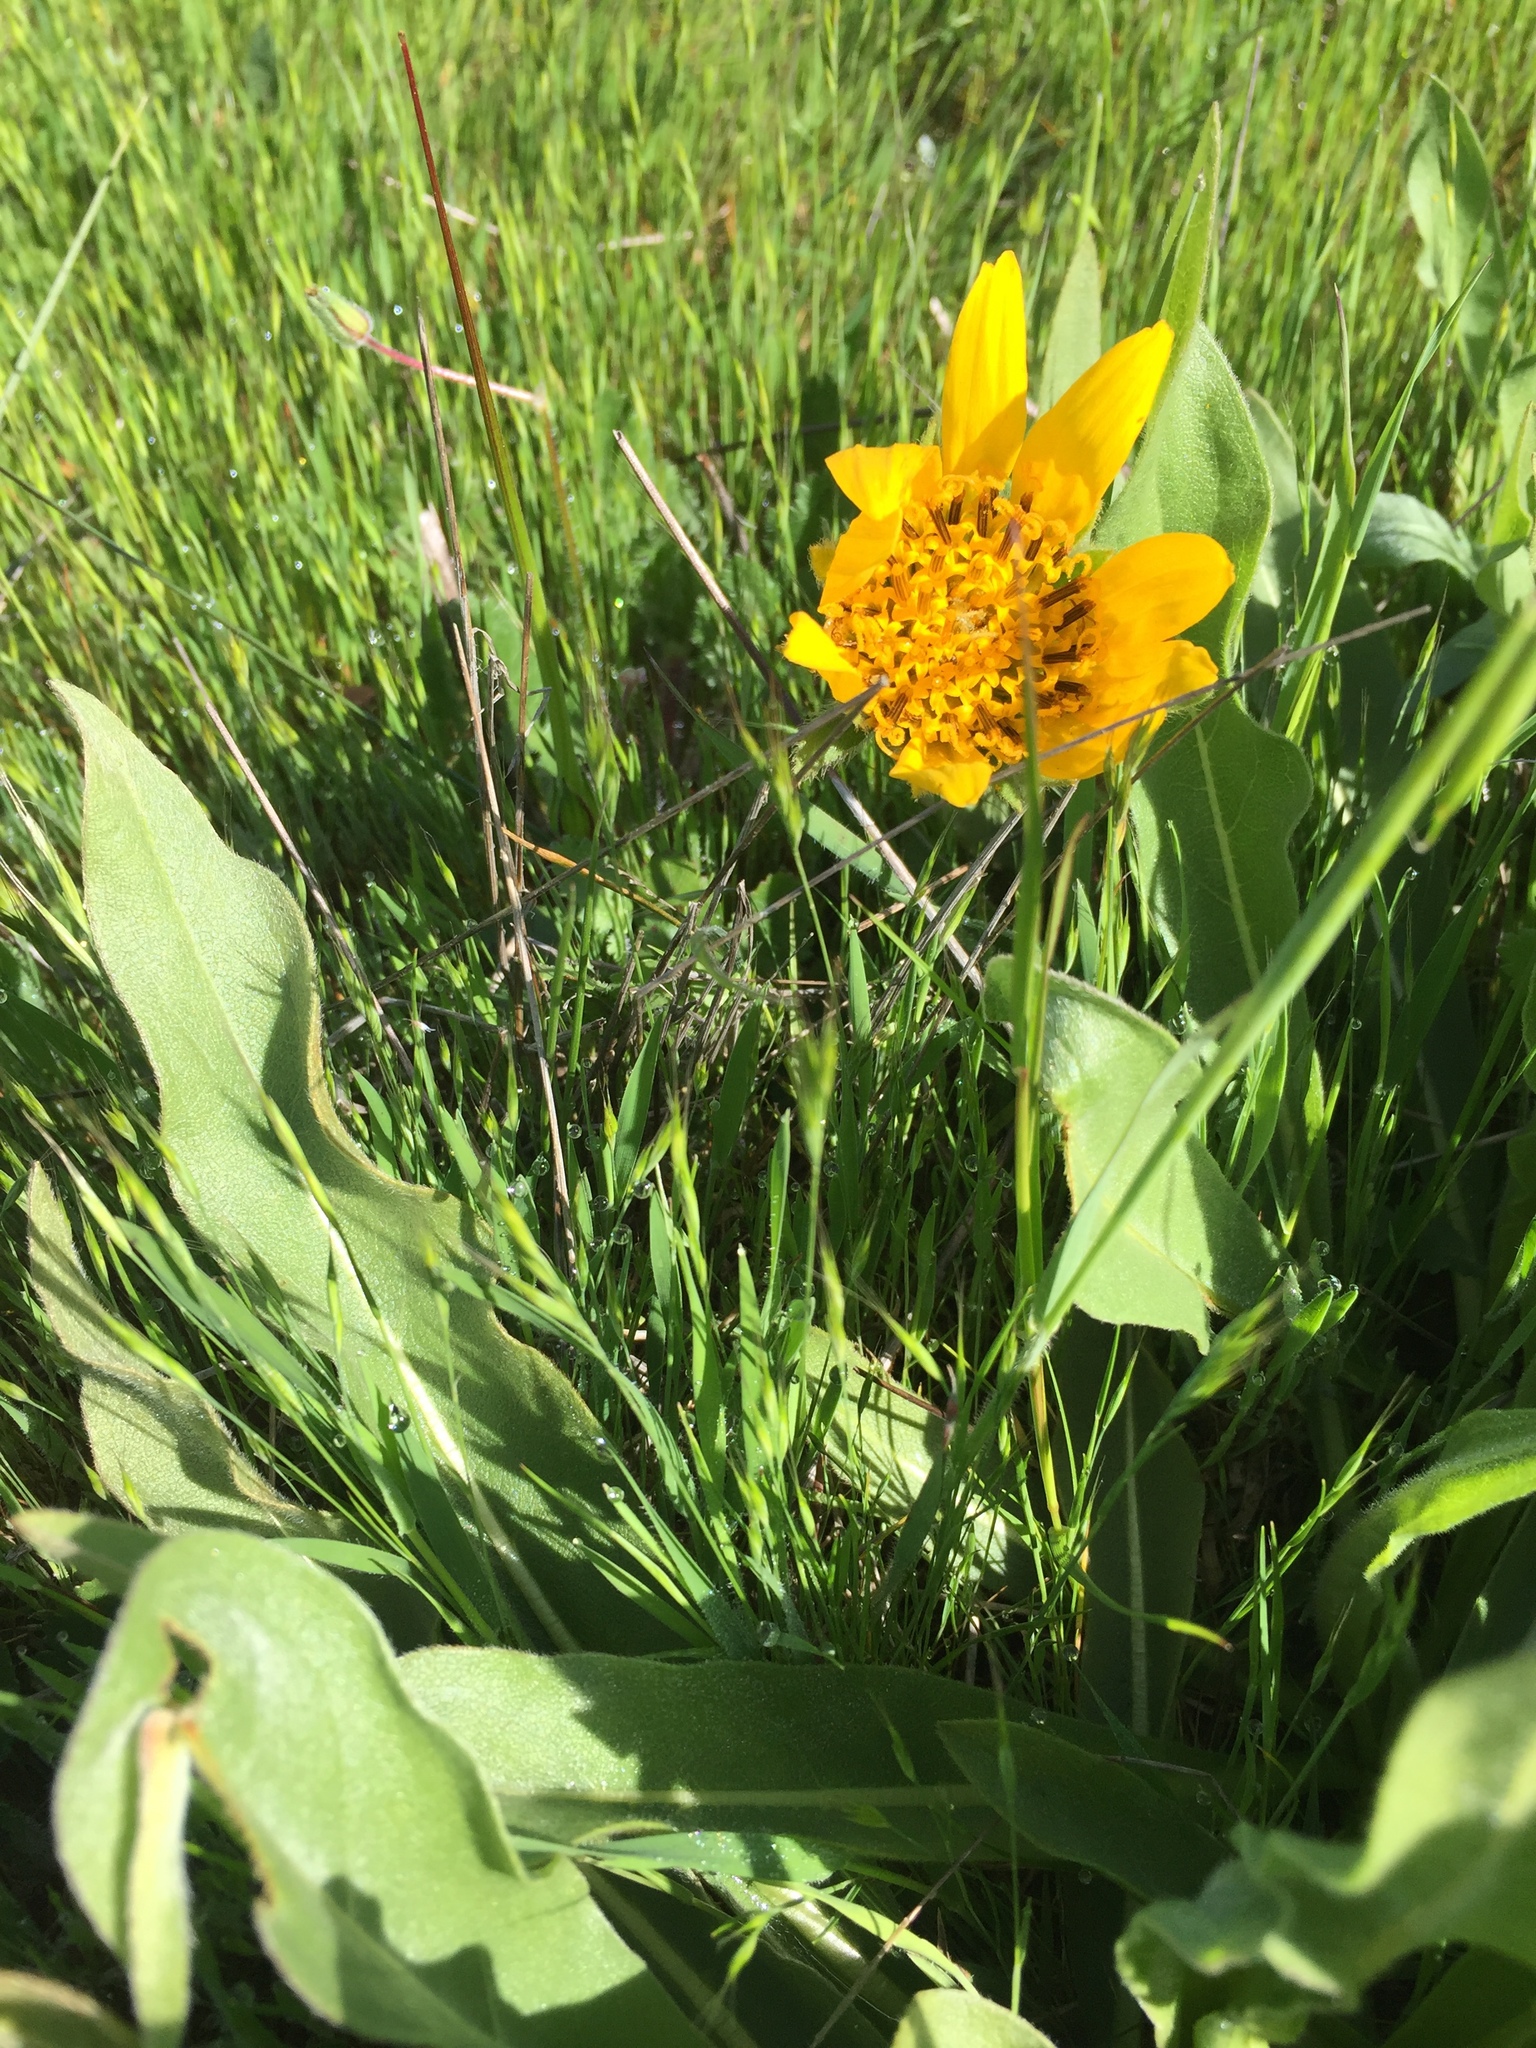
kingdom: Plantae
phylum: Tracheophyta
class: Magnoliopsida
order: Asterales
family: Asteraceae
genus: Wyethia
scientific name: Wyethia angustifolia
